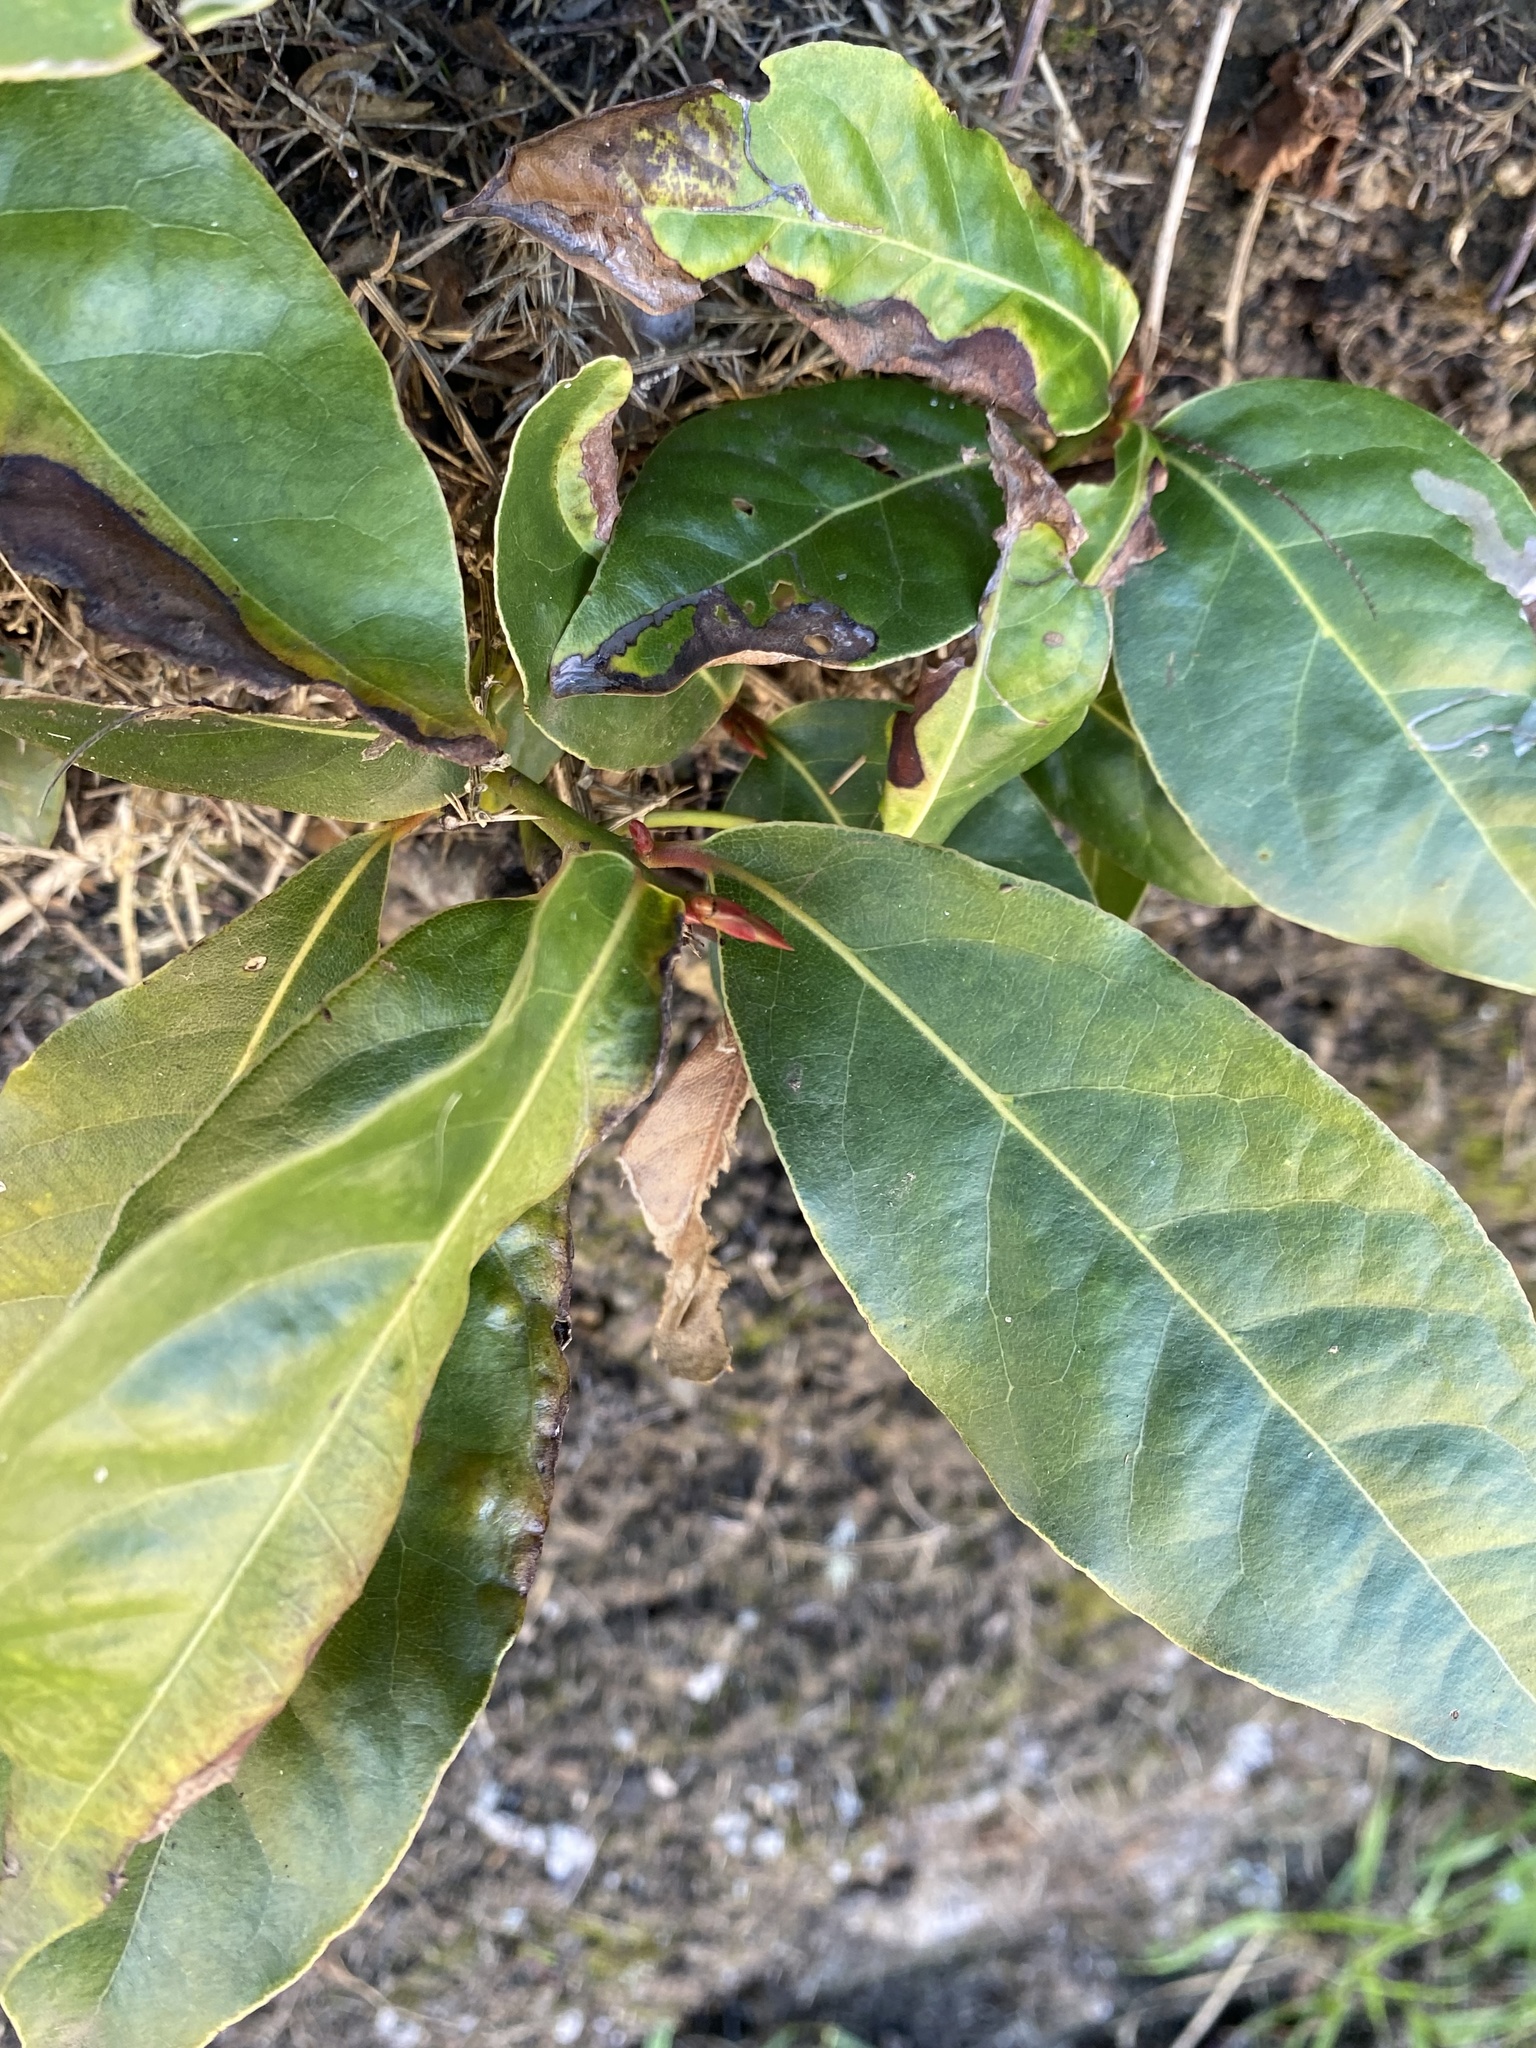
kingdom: Plantae
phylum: Tracheophyta
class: Magnoliopsida
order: Laurales
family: Lauraceae
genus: Laurus
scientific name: Laurus novocanariensis
